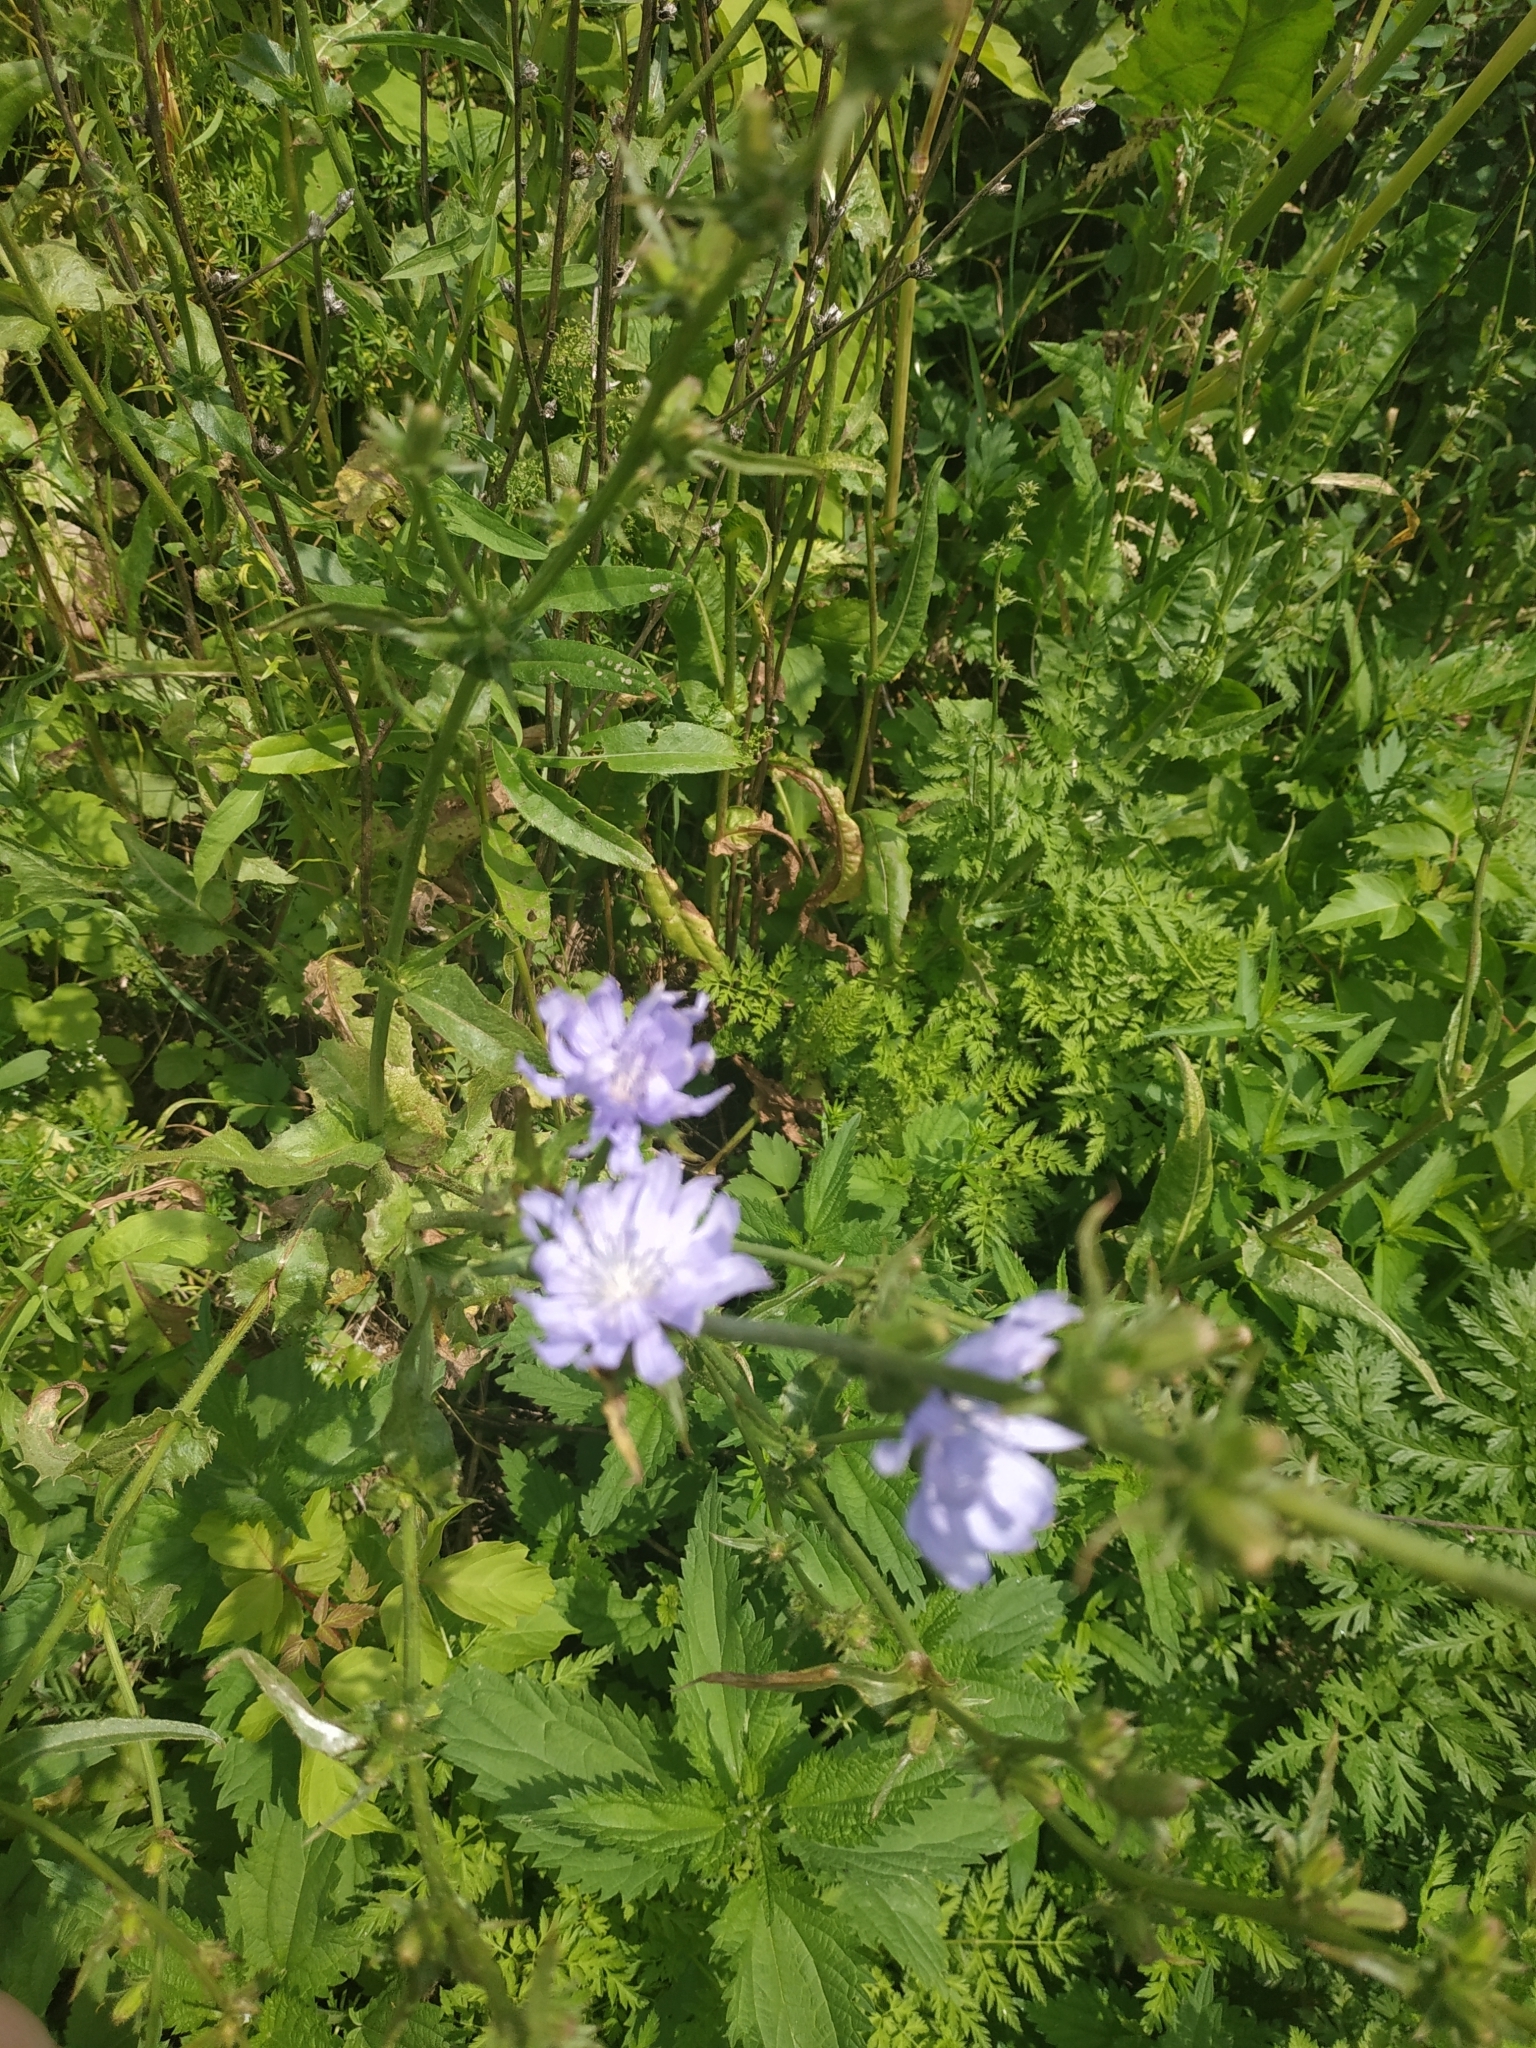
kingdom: Plantae
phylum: Tracheophyta
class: Magnoliopsida
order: Asterales
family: Asteraceae
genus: Cichorium
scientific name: Cichorium intybus
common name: Chicory
